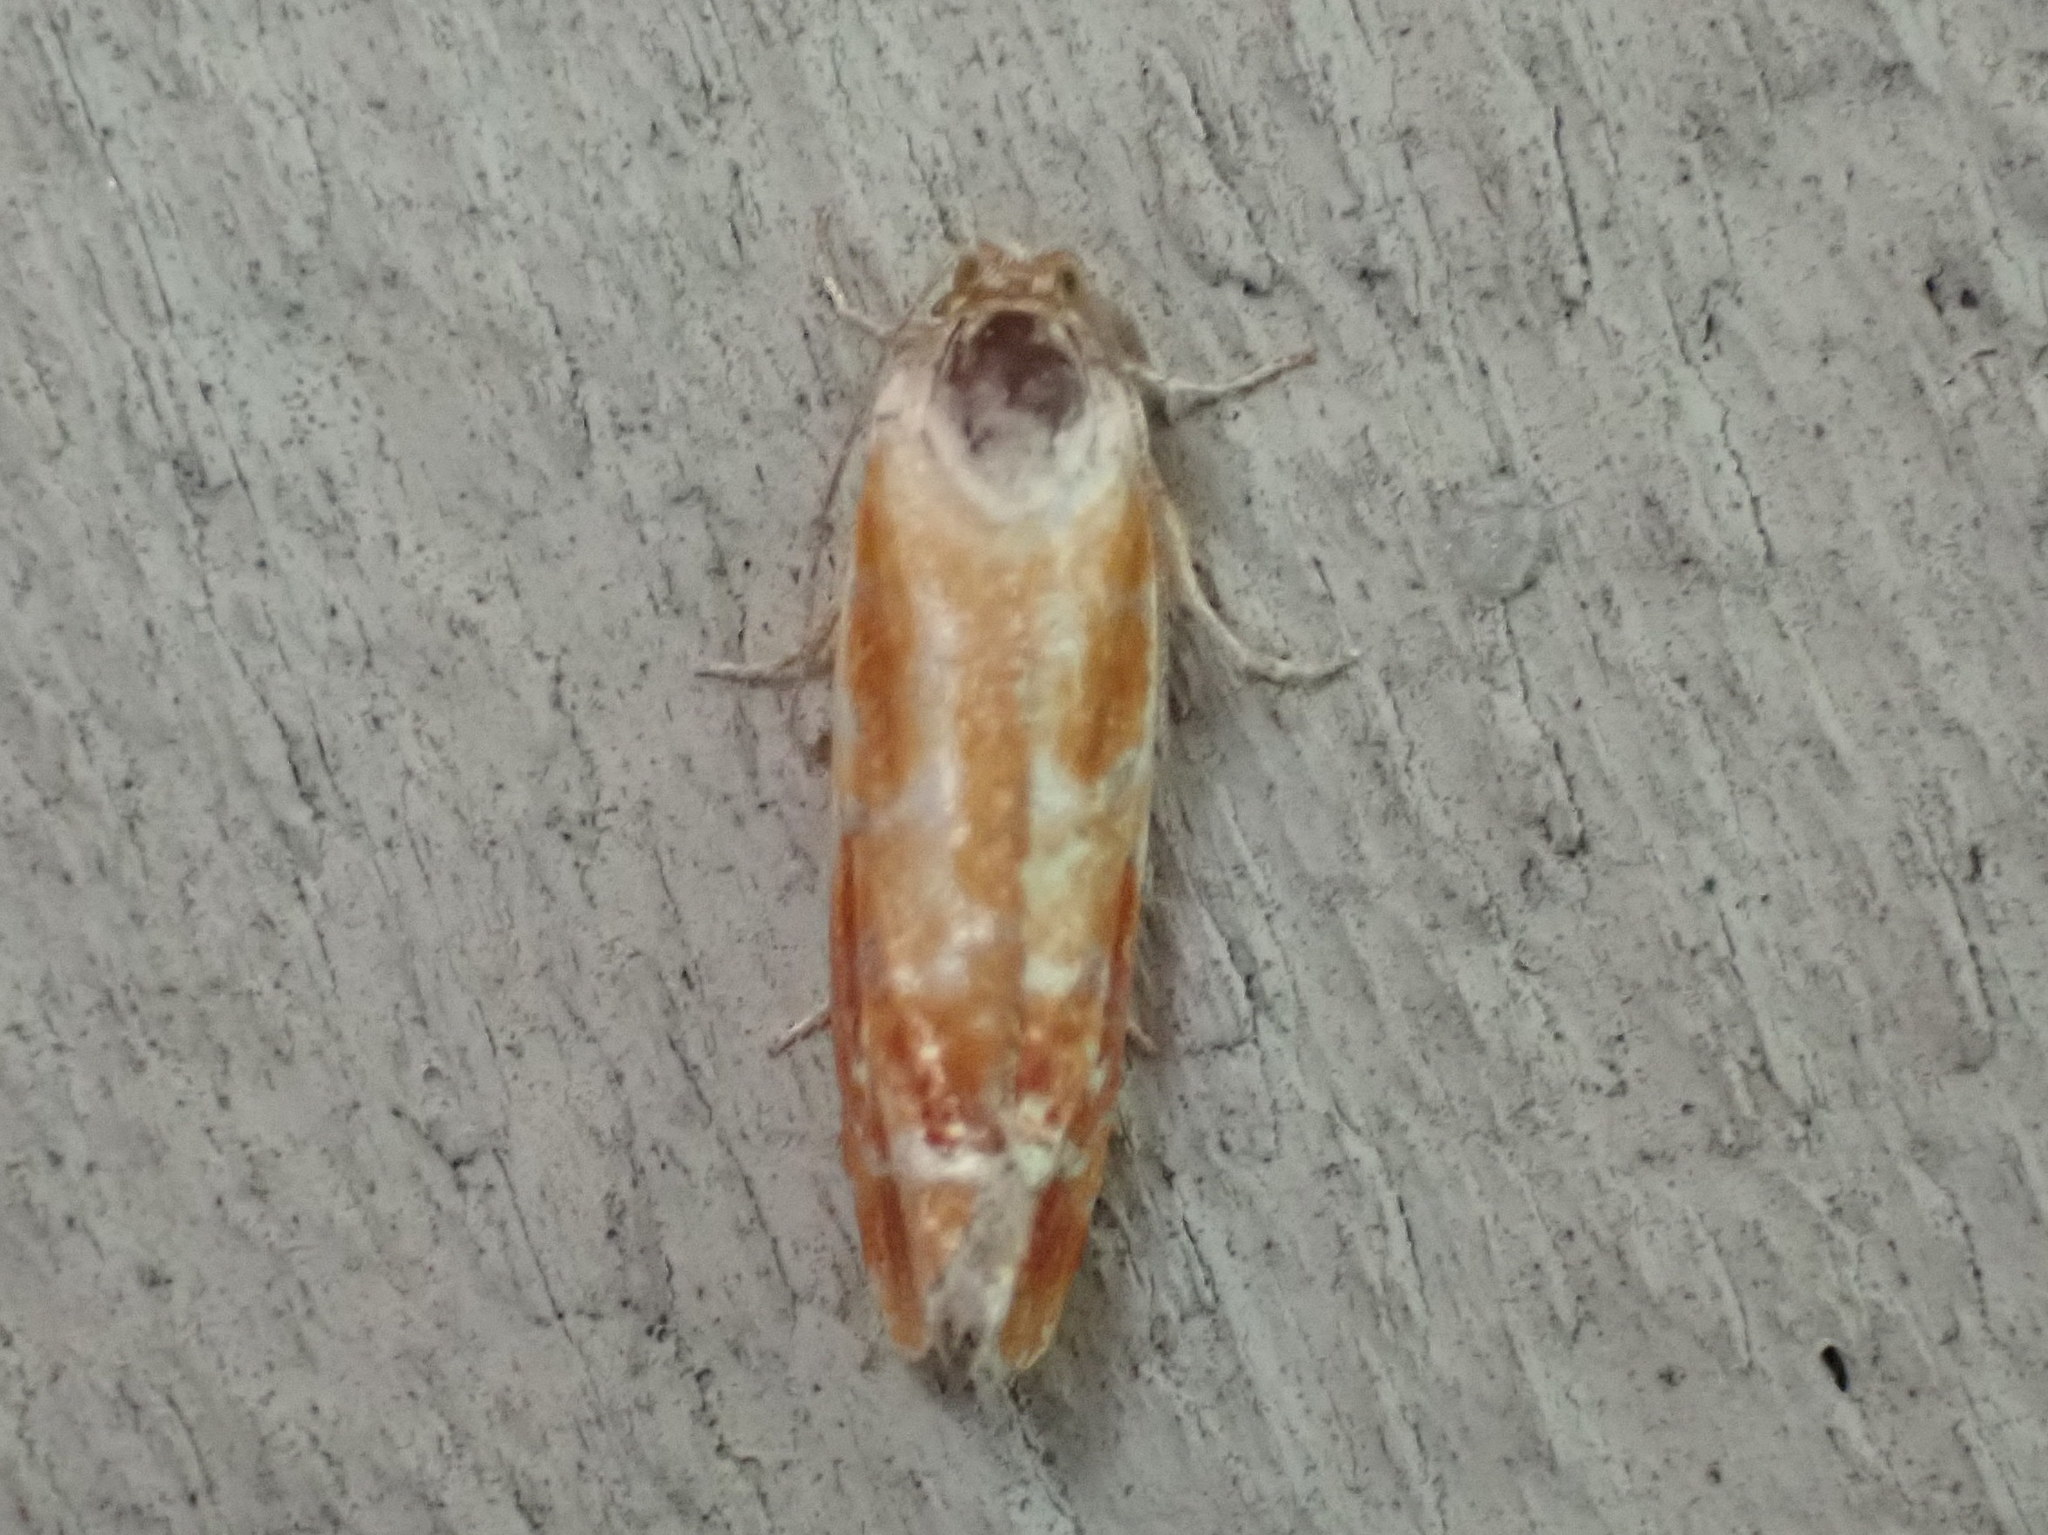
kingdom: Animalia
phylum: Arthropoda
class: Insecta
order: Lepidoptera
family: Tortricidae
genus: Rhyacionia
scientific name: Rhyacionia buoliana
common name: European pine shoot moth
